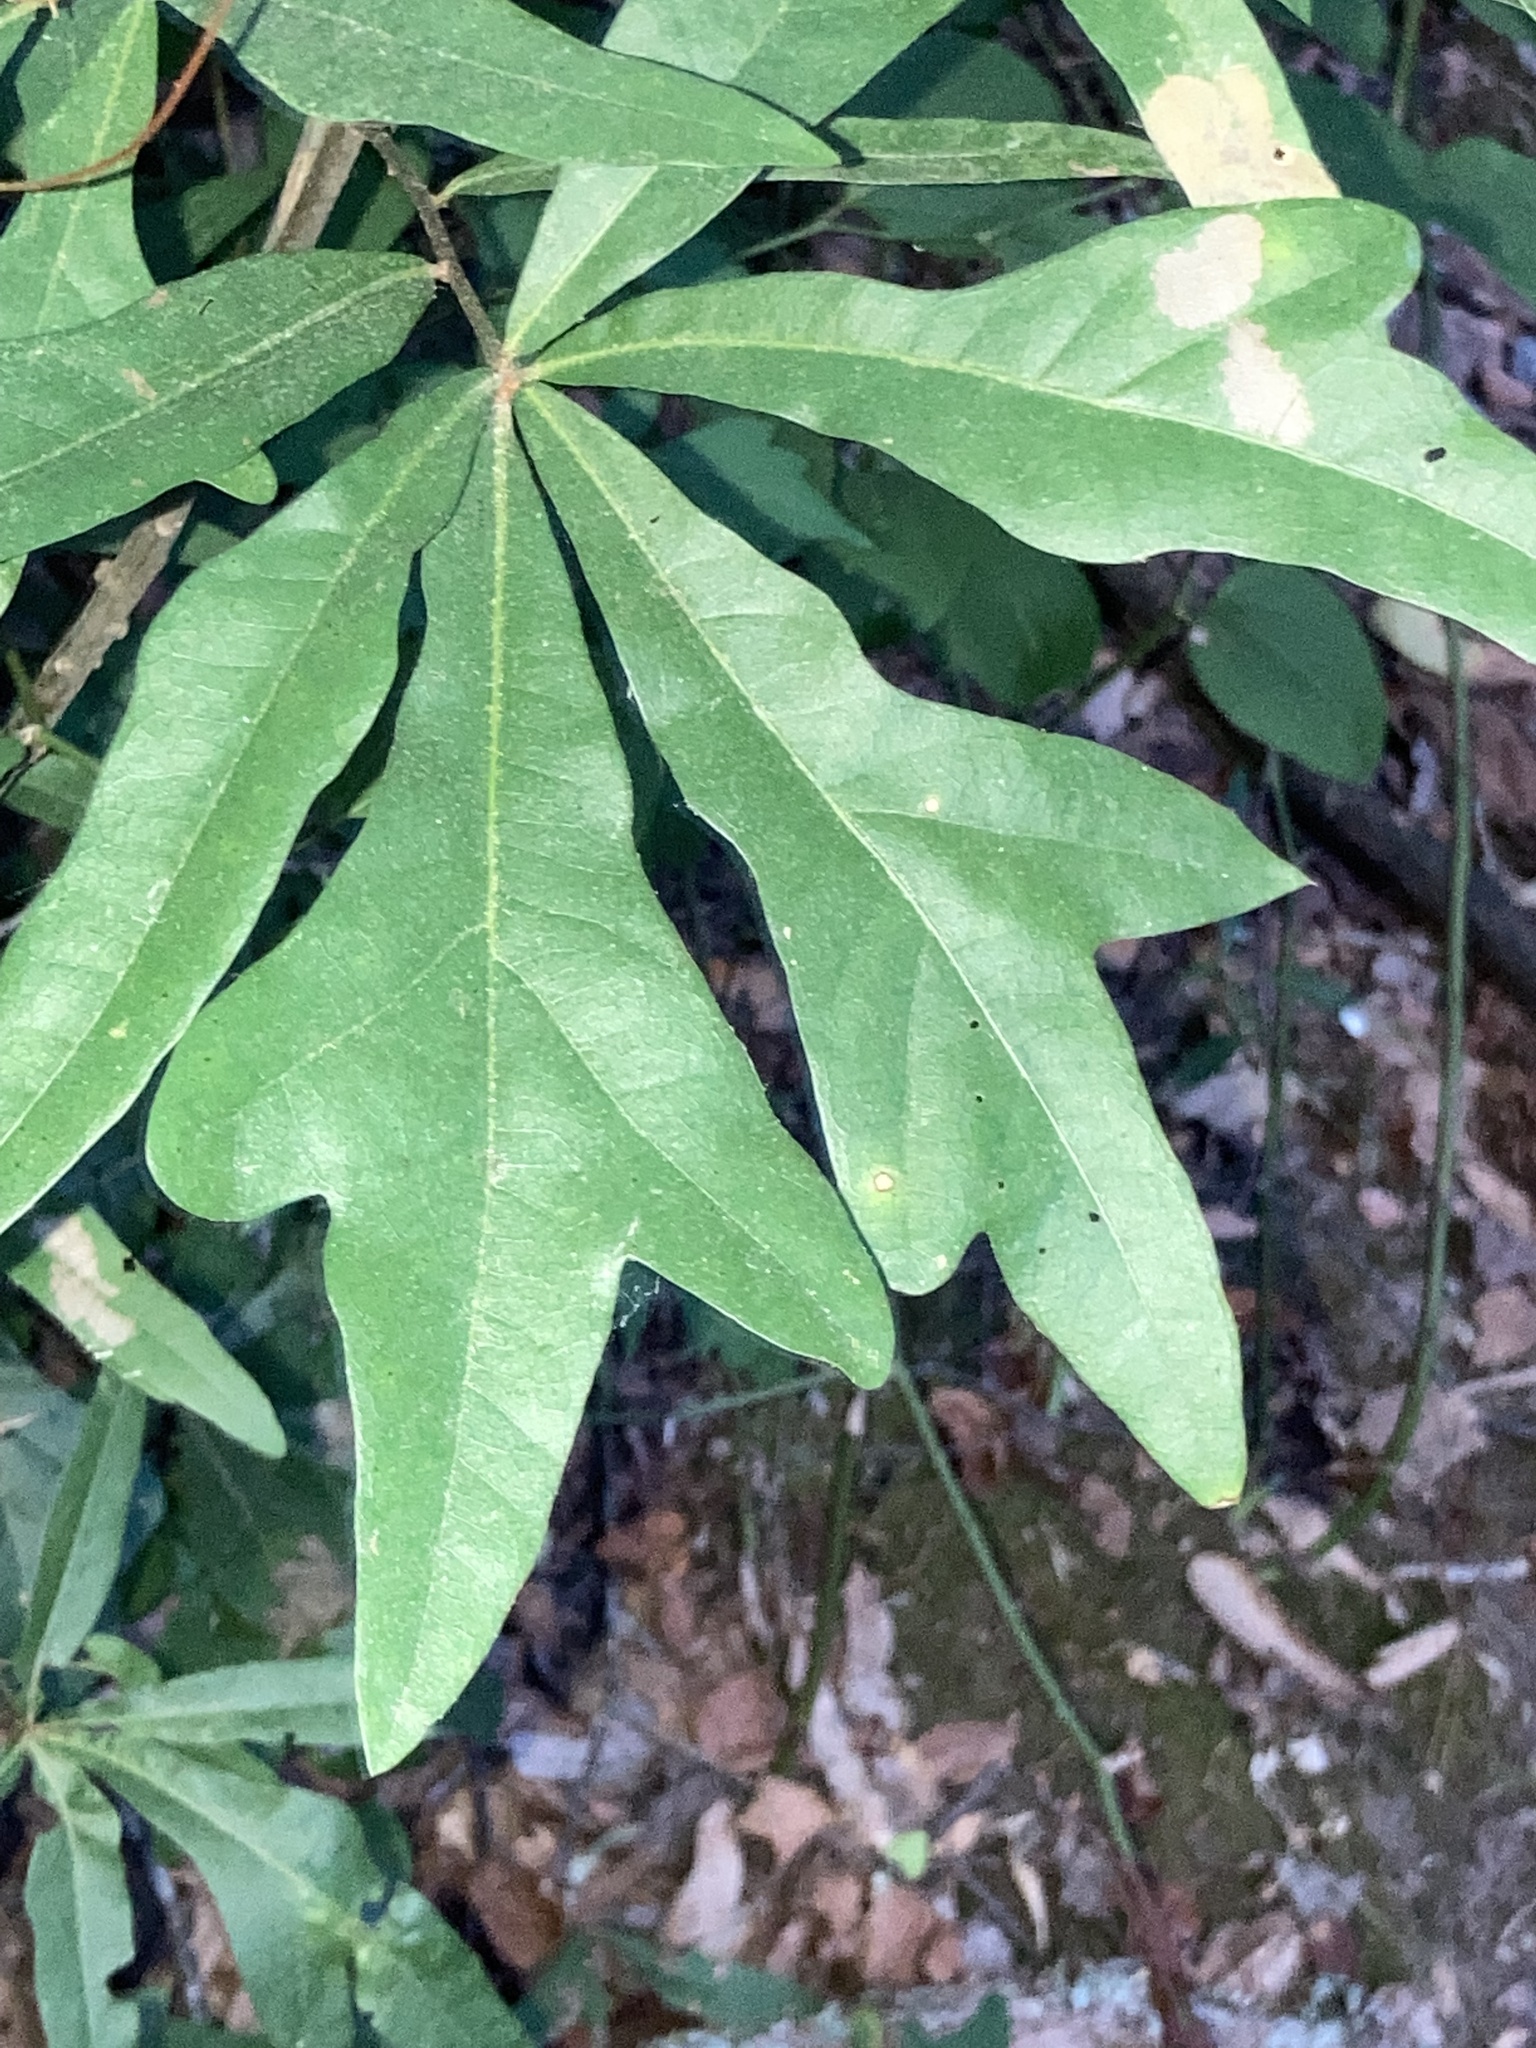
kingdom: Plantae
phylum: Tracheophyta
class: Magnoliopsida
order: Fagales
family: Fagaceae
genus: Quercus
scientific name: Quercus nigra
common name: Water oak
